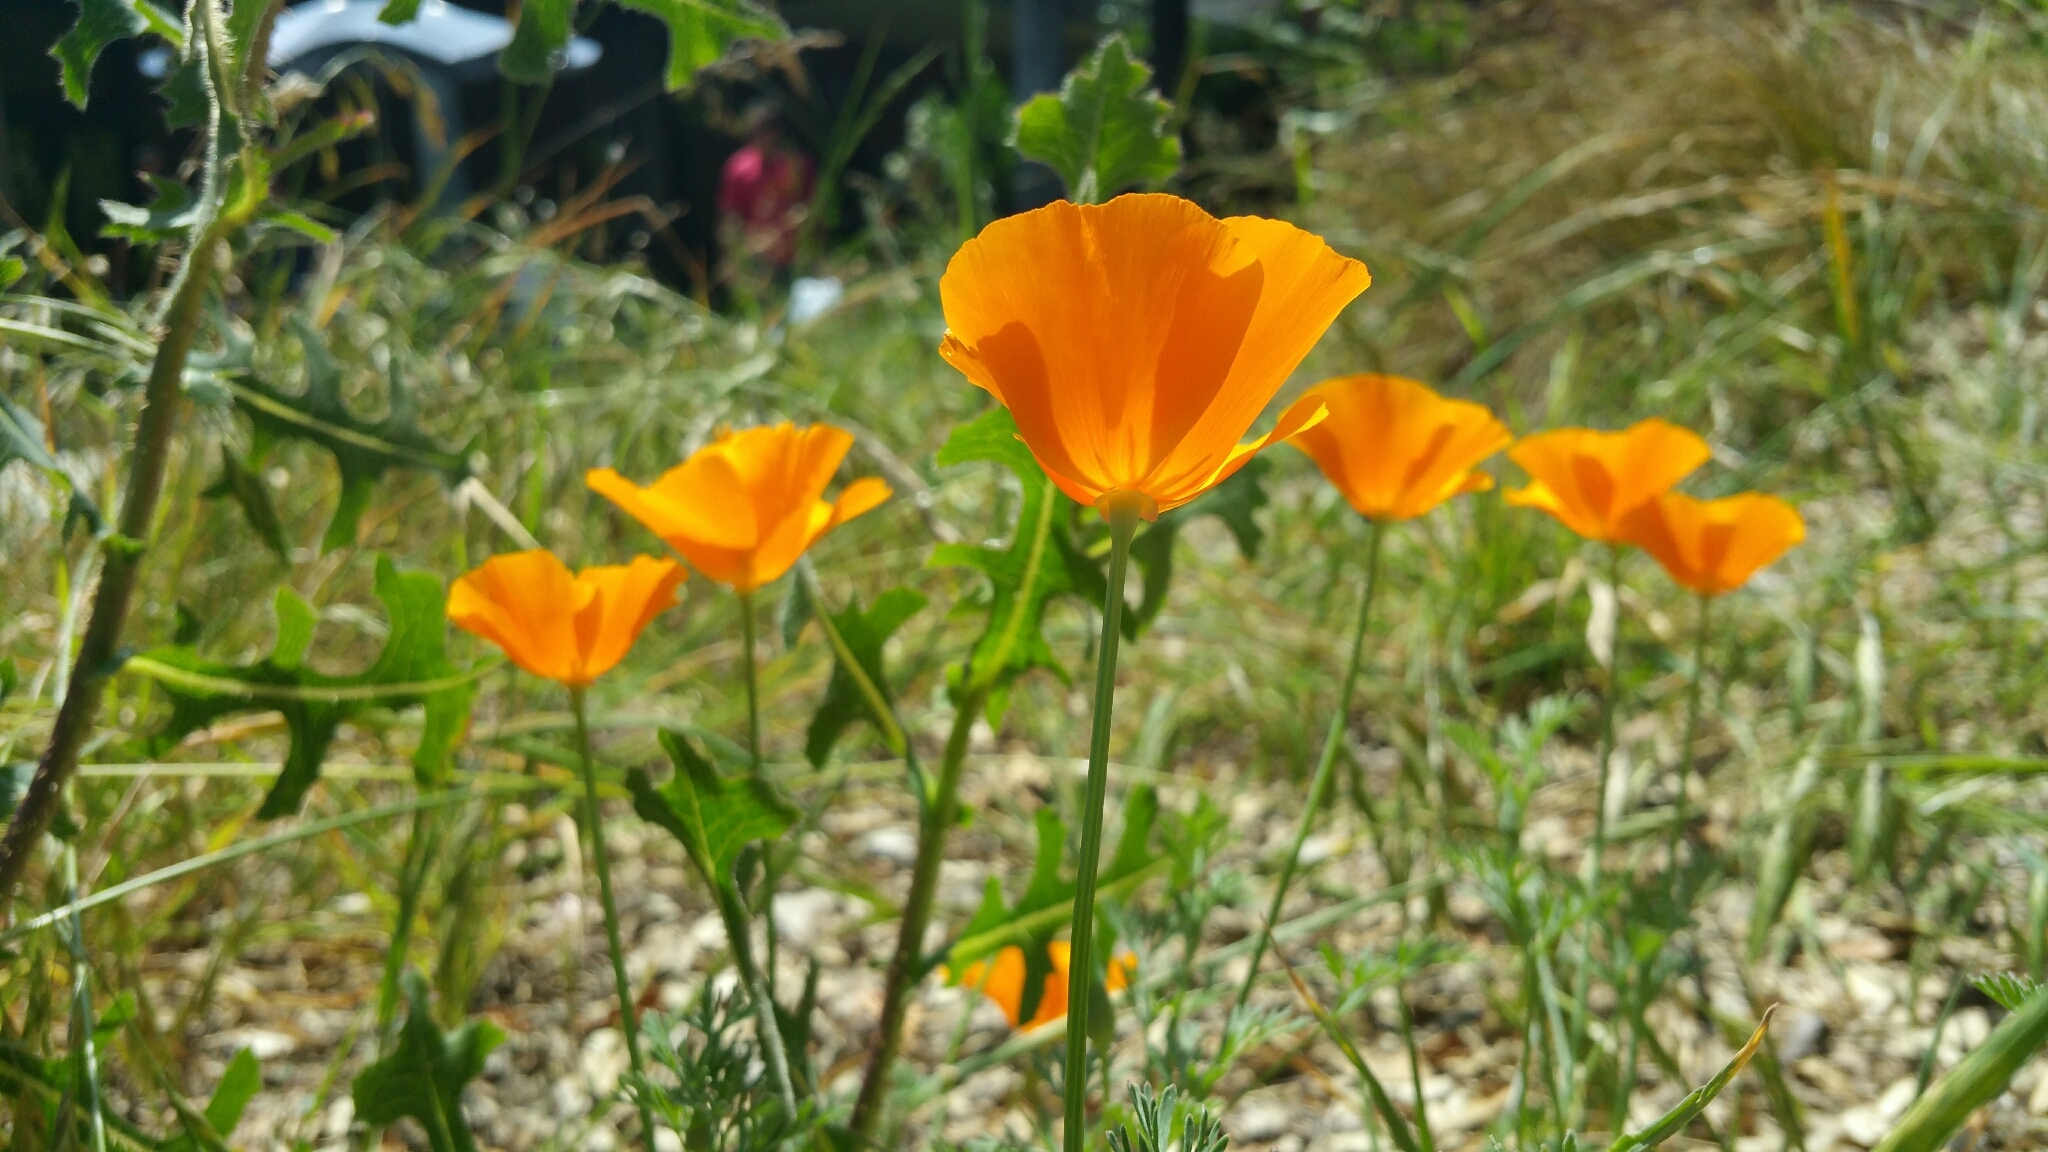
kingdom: Plantae
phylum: Tracheophyta
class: Magnoliopsida
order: Ranunculales
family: Papaveraceae
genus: Eschscholzia
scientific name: Eschscholzia californica
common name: California poppy
